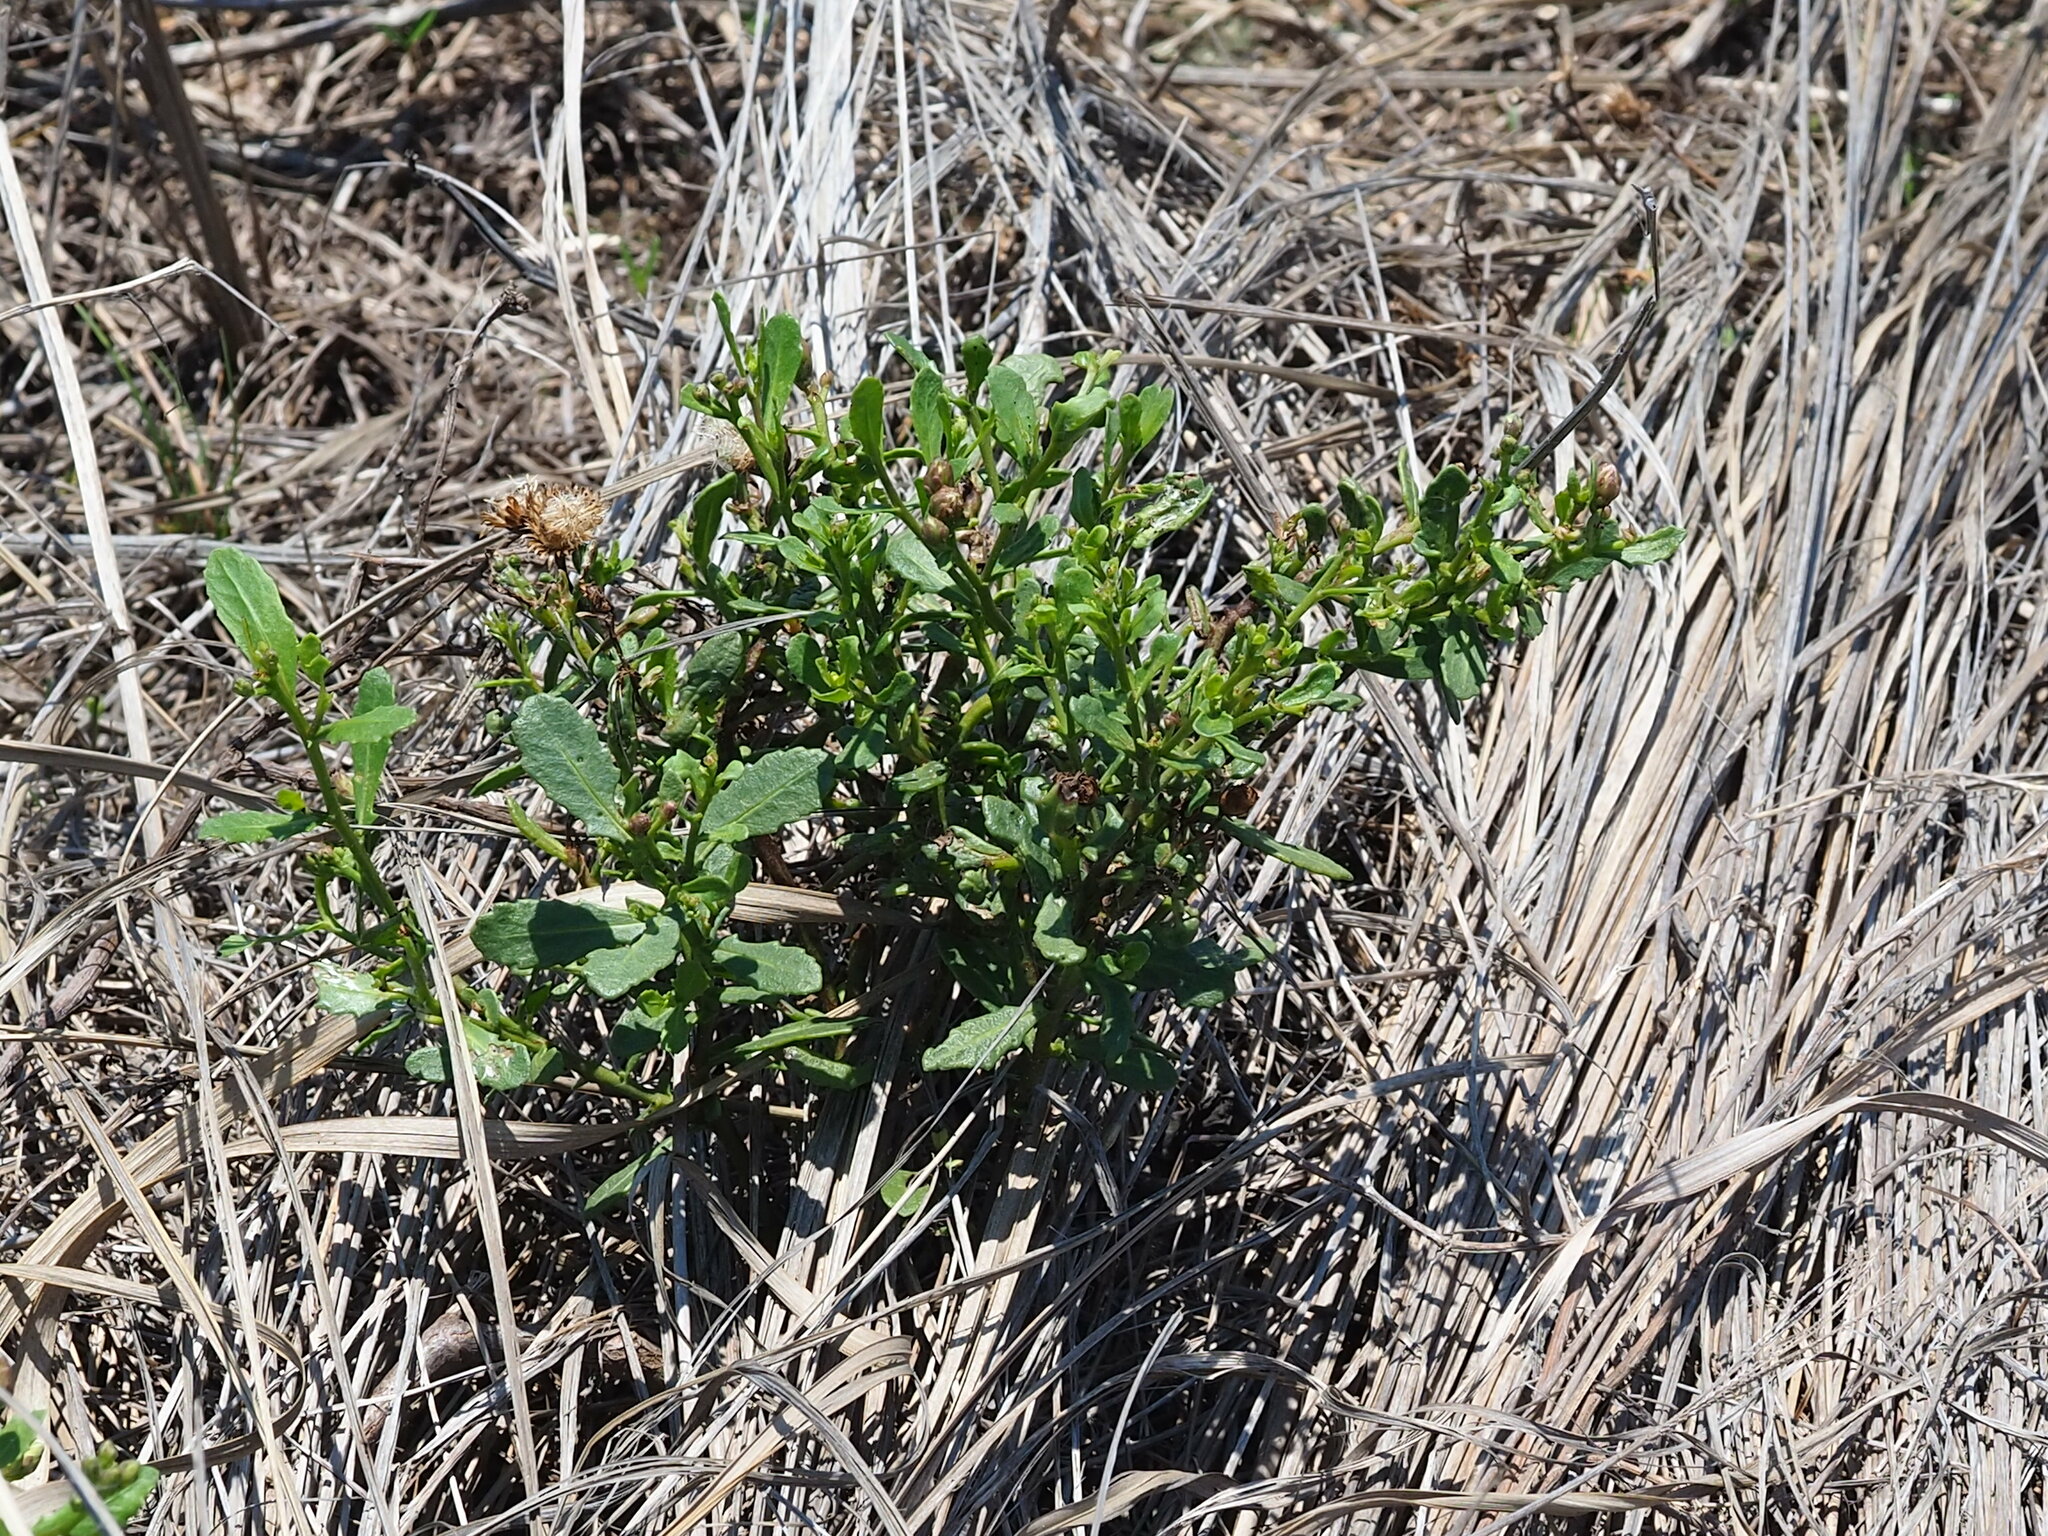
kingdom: Plantae
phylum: Tracheophyta
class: Magnoliopsida
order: Asterales
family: Asteraceae
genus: Pluchea
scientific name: Pluchea pteropoda
